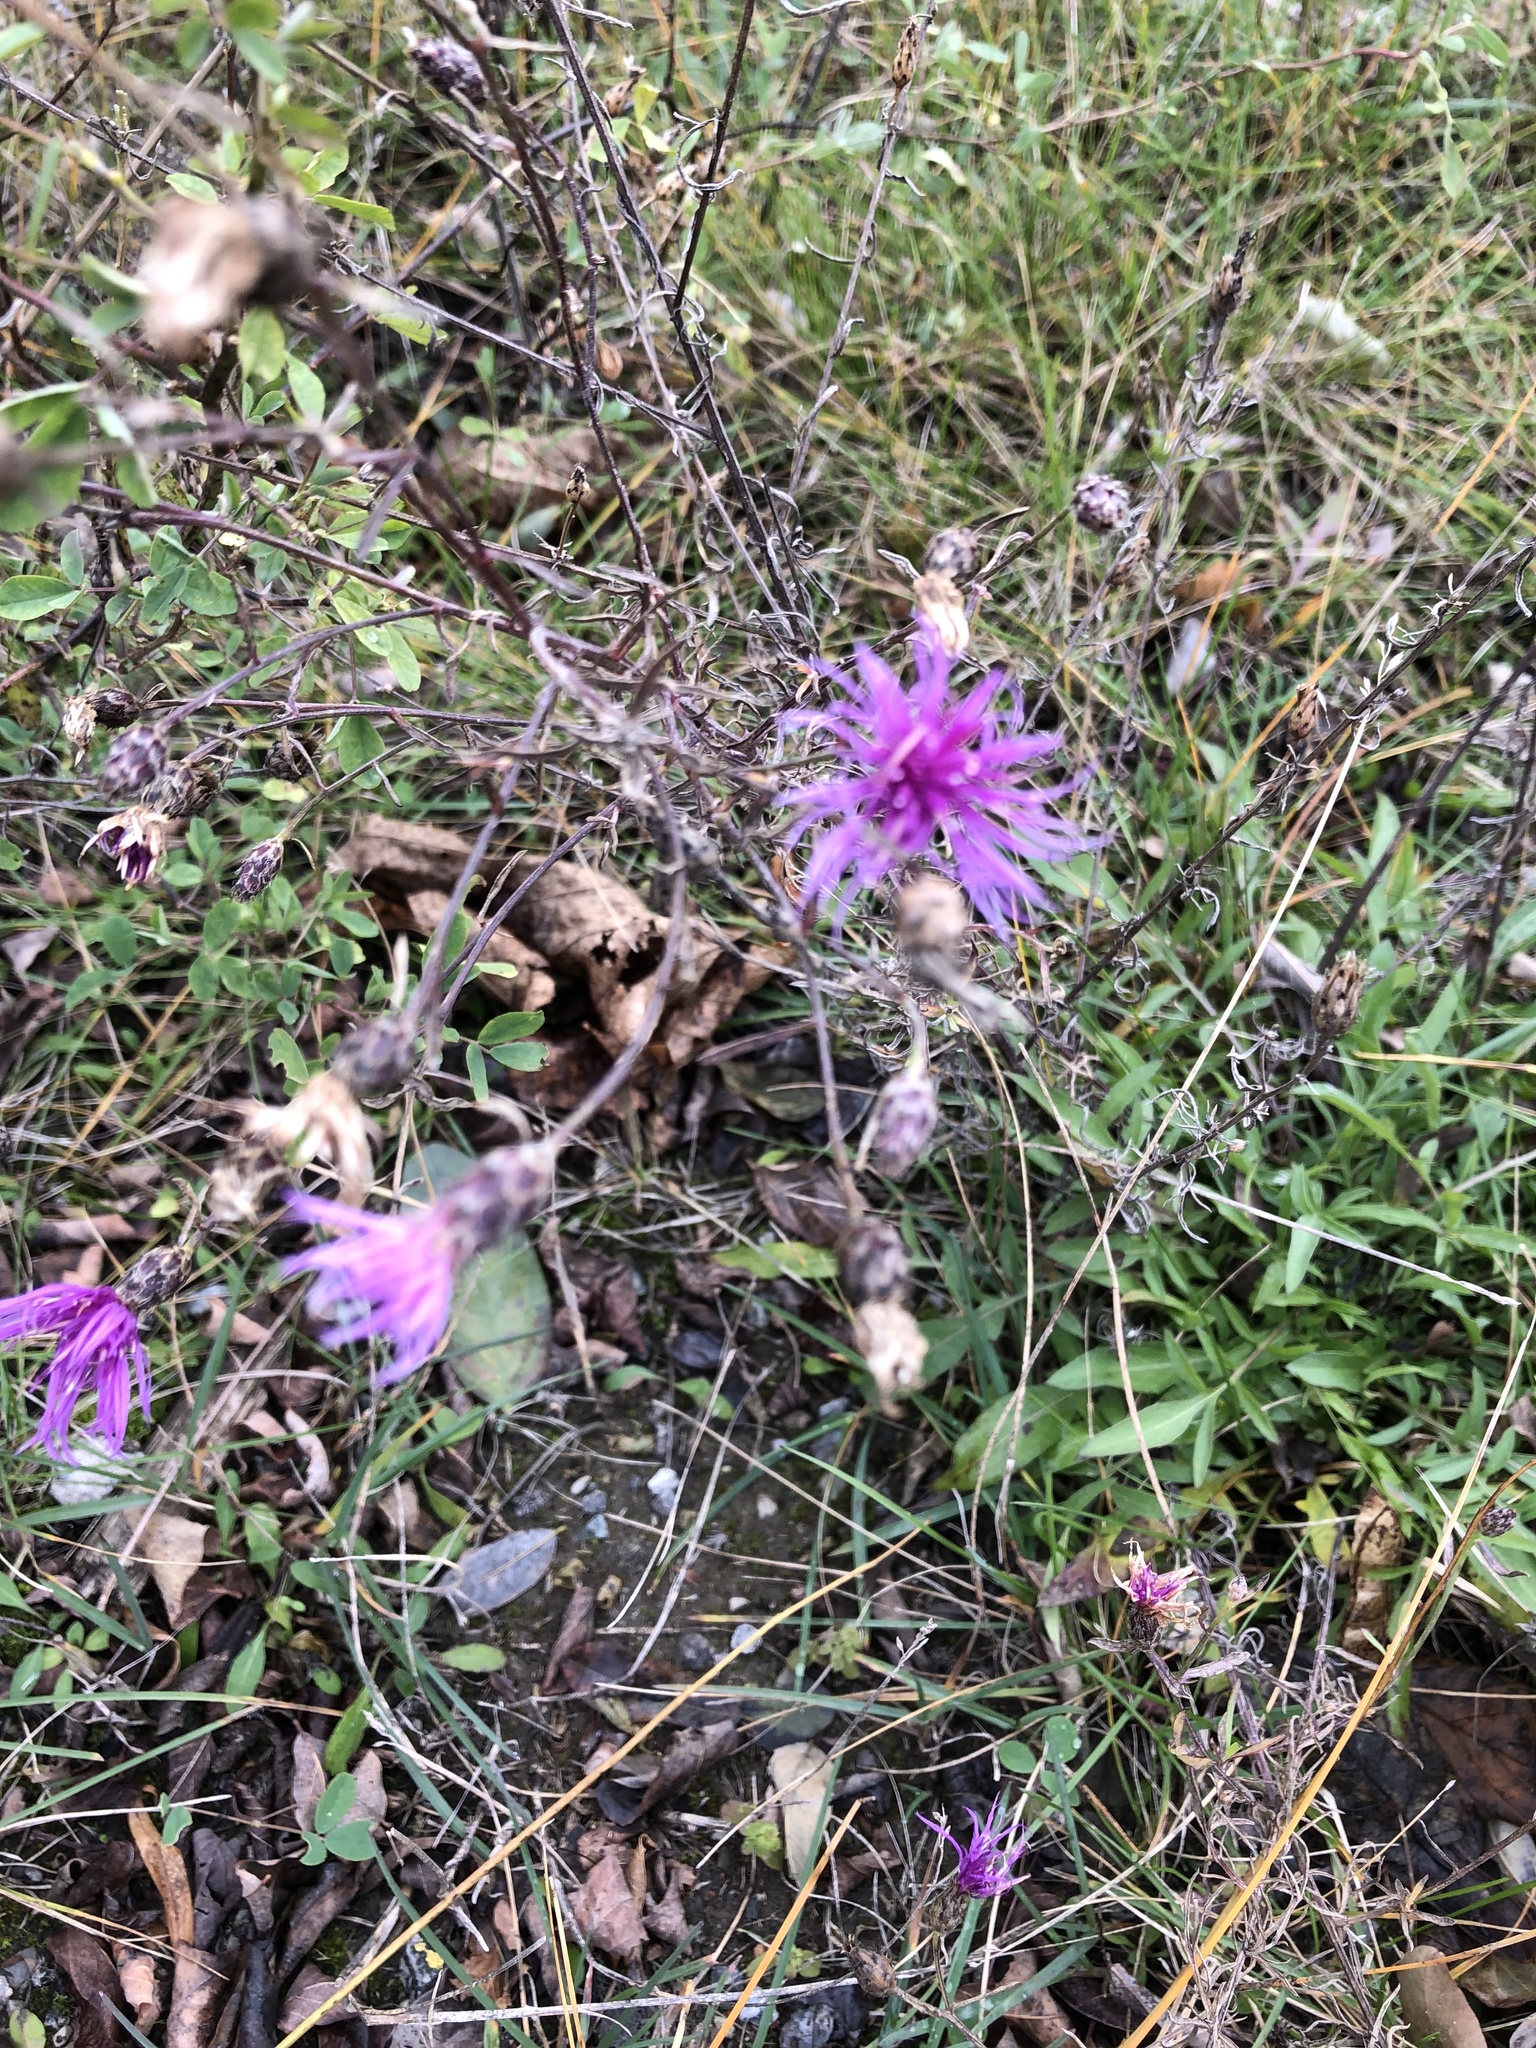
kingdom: Plantae
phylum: Tracheophyta
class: Magnoliopsida
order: Asterales
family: Asteraceae
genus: Centaurea
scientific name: Centaurea stoebe
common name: Spotted knapweed
